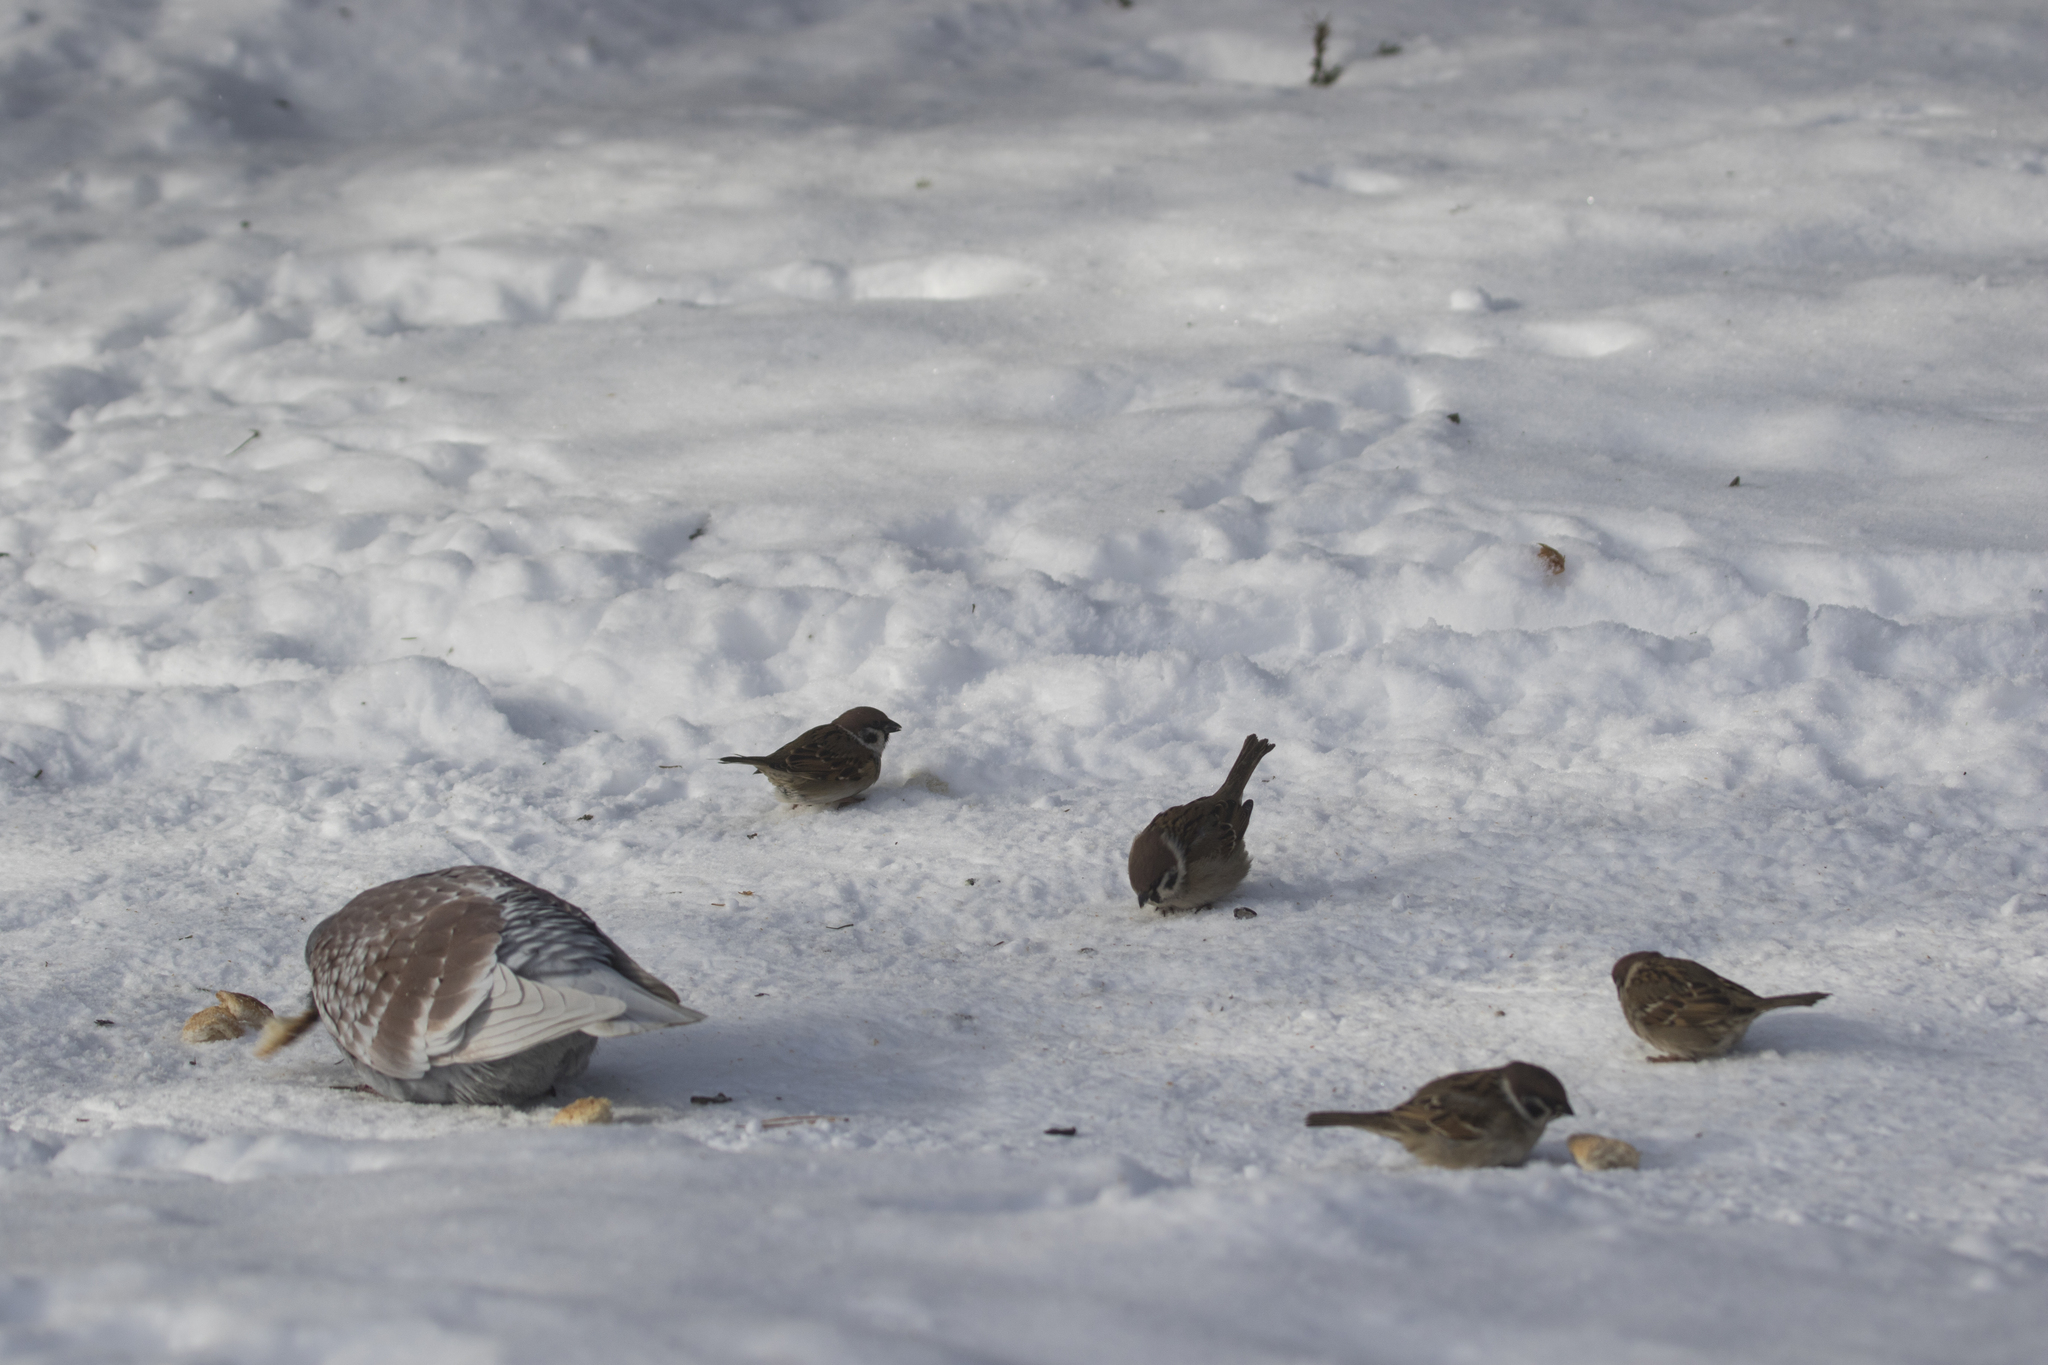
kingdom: Animalia
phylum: Chordata
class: Aves
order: Columbiformes
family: Columbidae
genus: Columba
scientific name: Columba livia
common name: Rock pigeon
